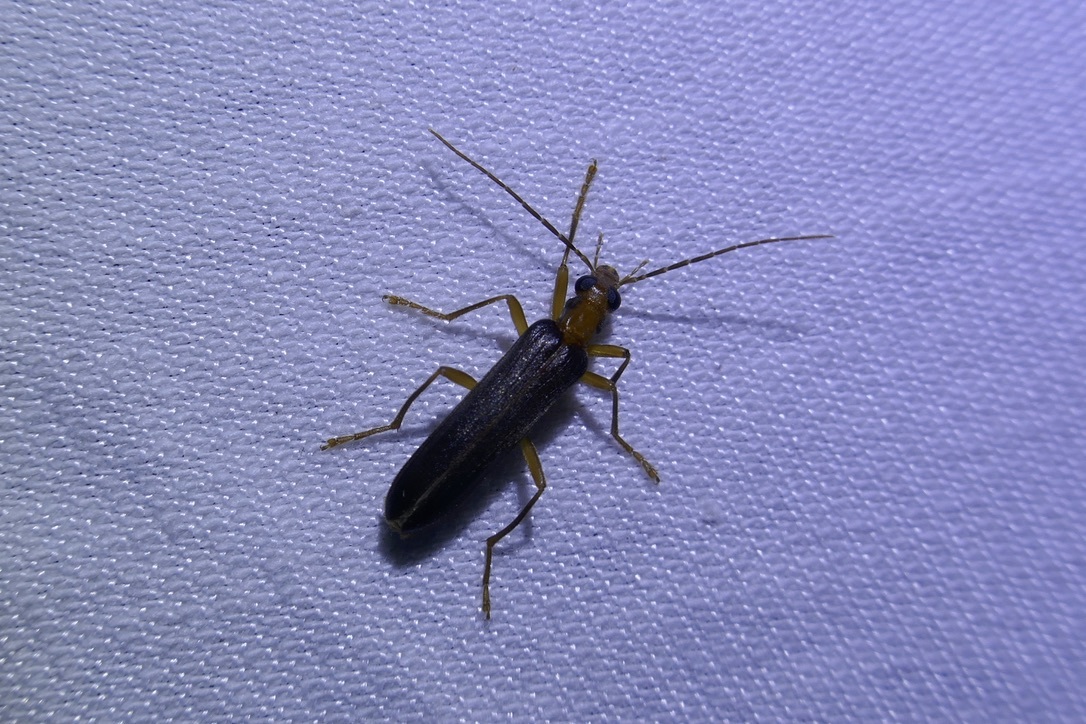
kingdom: Animalia
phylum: Arthropoda
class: Insecta
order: Coleoptera
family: Oedemeridae
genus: Nacerdes
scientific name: Nacerdes carniolica
